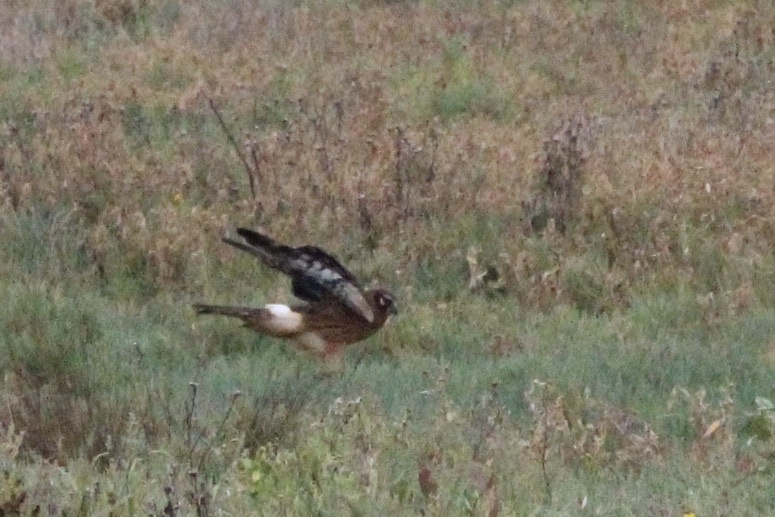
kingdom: Animalia
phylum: Chordata
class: Aves
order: Accipitriformes
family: Accipitridae
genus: Circus
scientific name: Circus cyaneus
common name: Hen harrier
